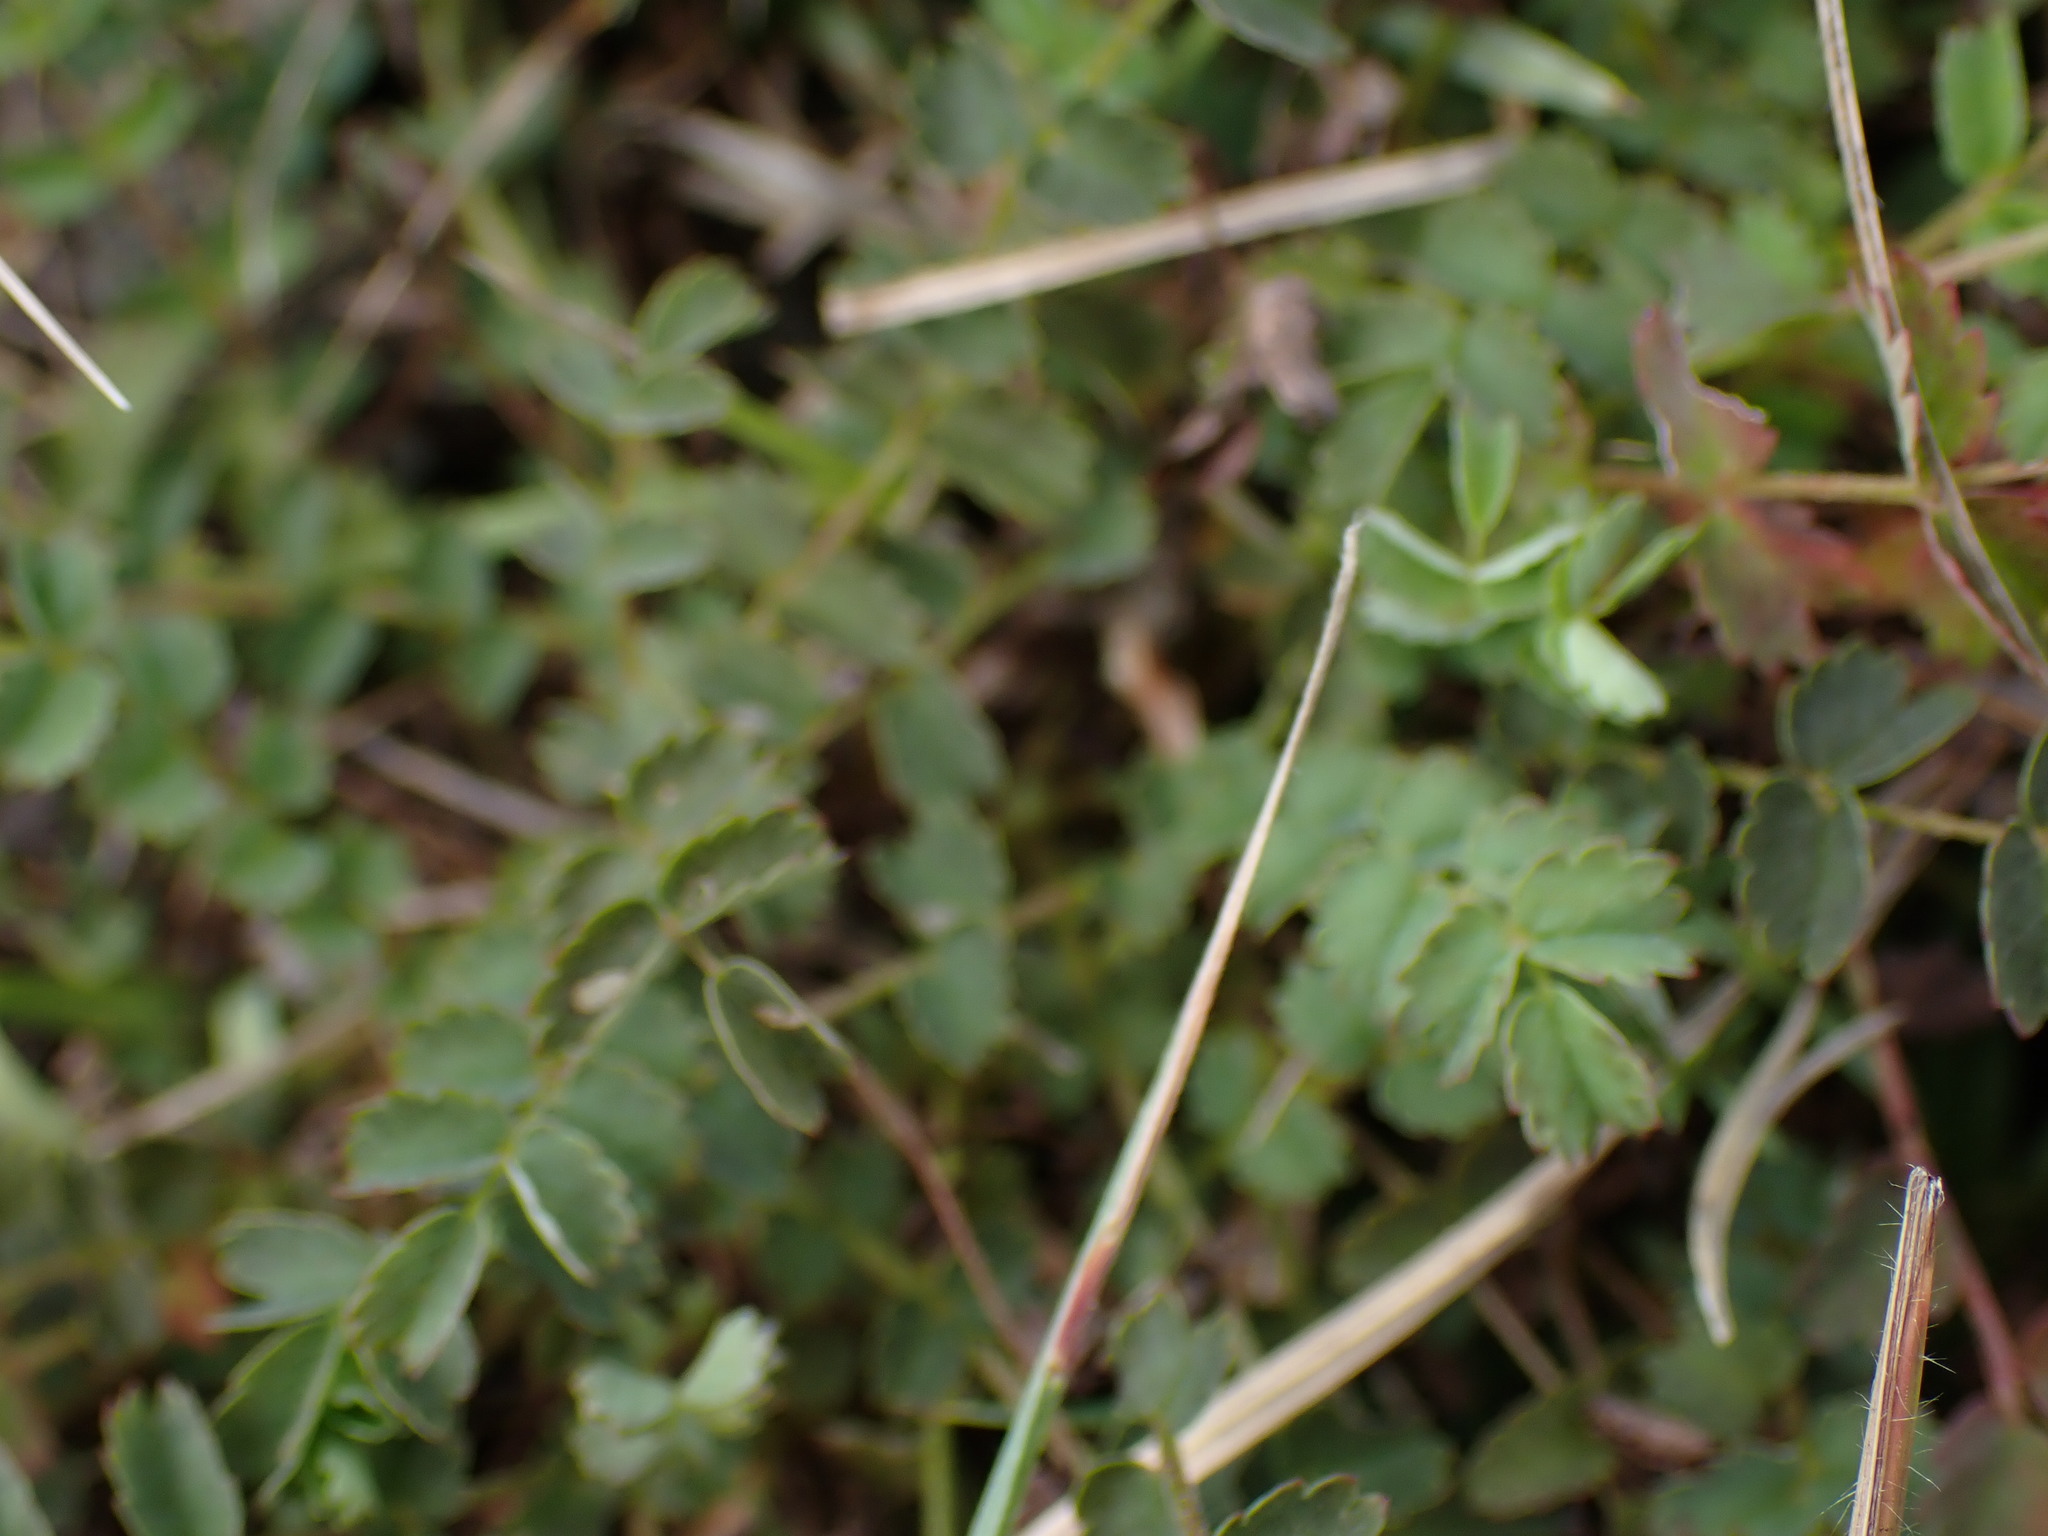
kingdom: Plantae
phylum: Tracheophyta
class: Magnoliopsida
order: Rosales
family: Rosaceae
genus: Poterium
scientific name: Poterium sanguisorba
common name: Salad burnet
